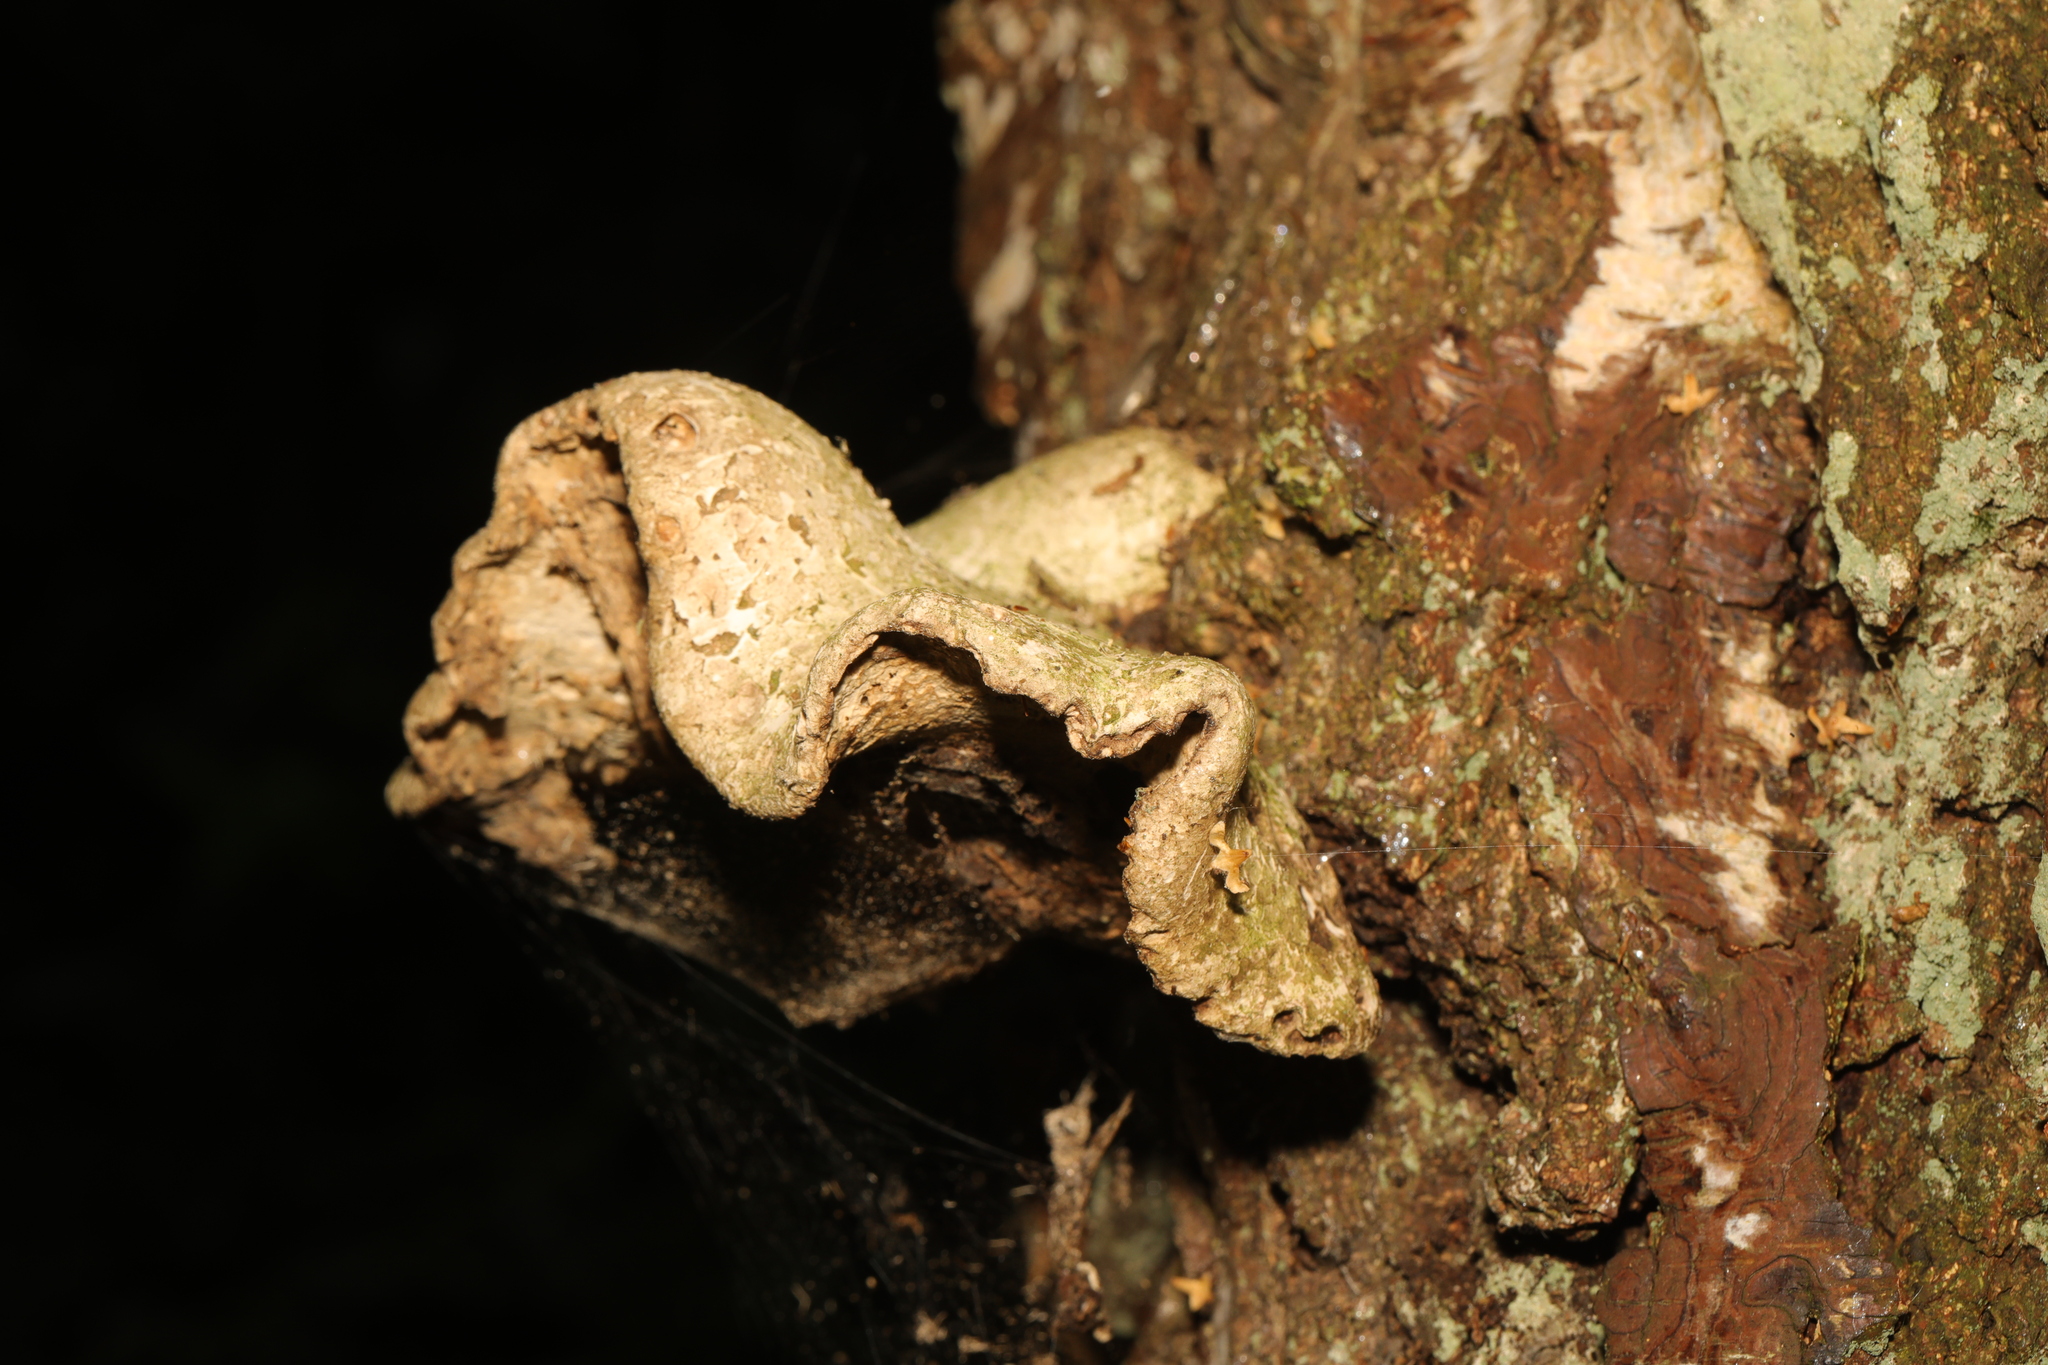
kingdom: Fungi
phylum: Basidiomycota
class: Agaricomycetes
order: Polyporales
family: Fomitopsidaceae
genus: Fomitopsis
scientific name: Fomitopsis betulina
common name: Birch polypore
